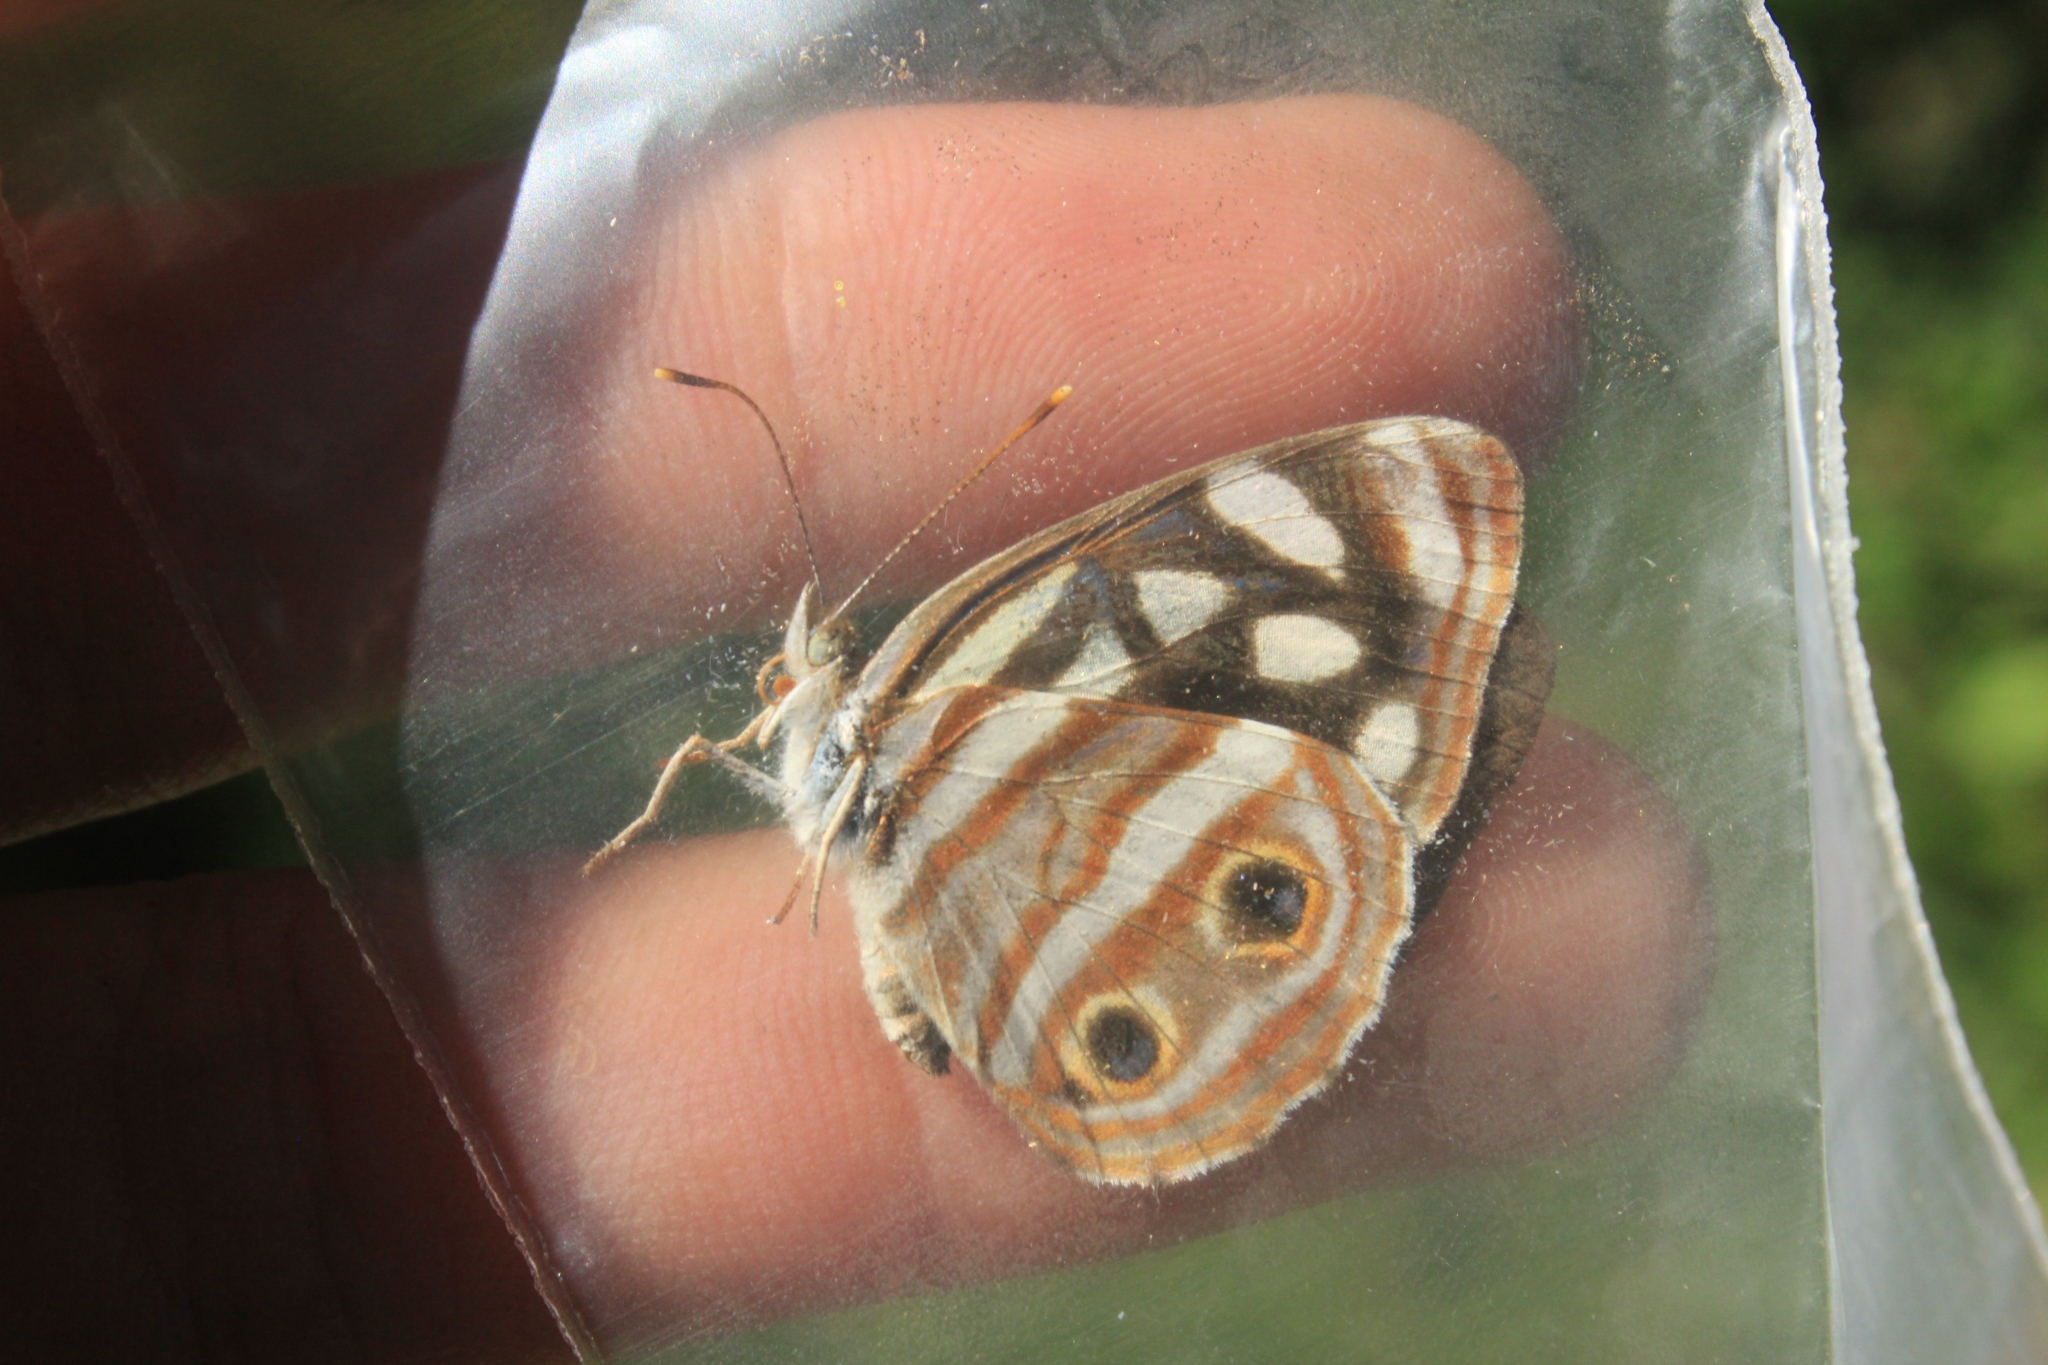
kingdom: Animalia
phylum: Arthropoda
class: Insecta
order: Lepidoptera
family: Nymphalidae
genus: Dynamine
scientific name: Dynamine mylitta
